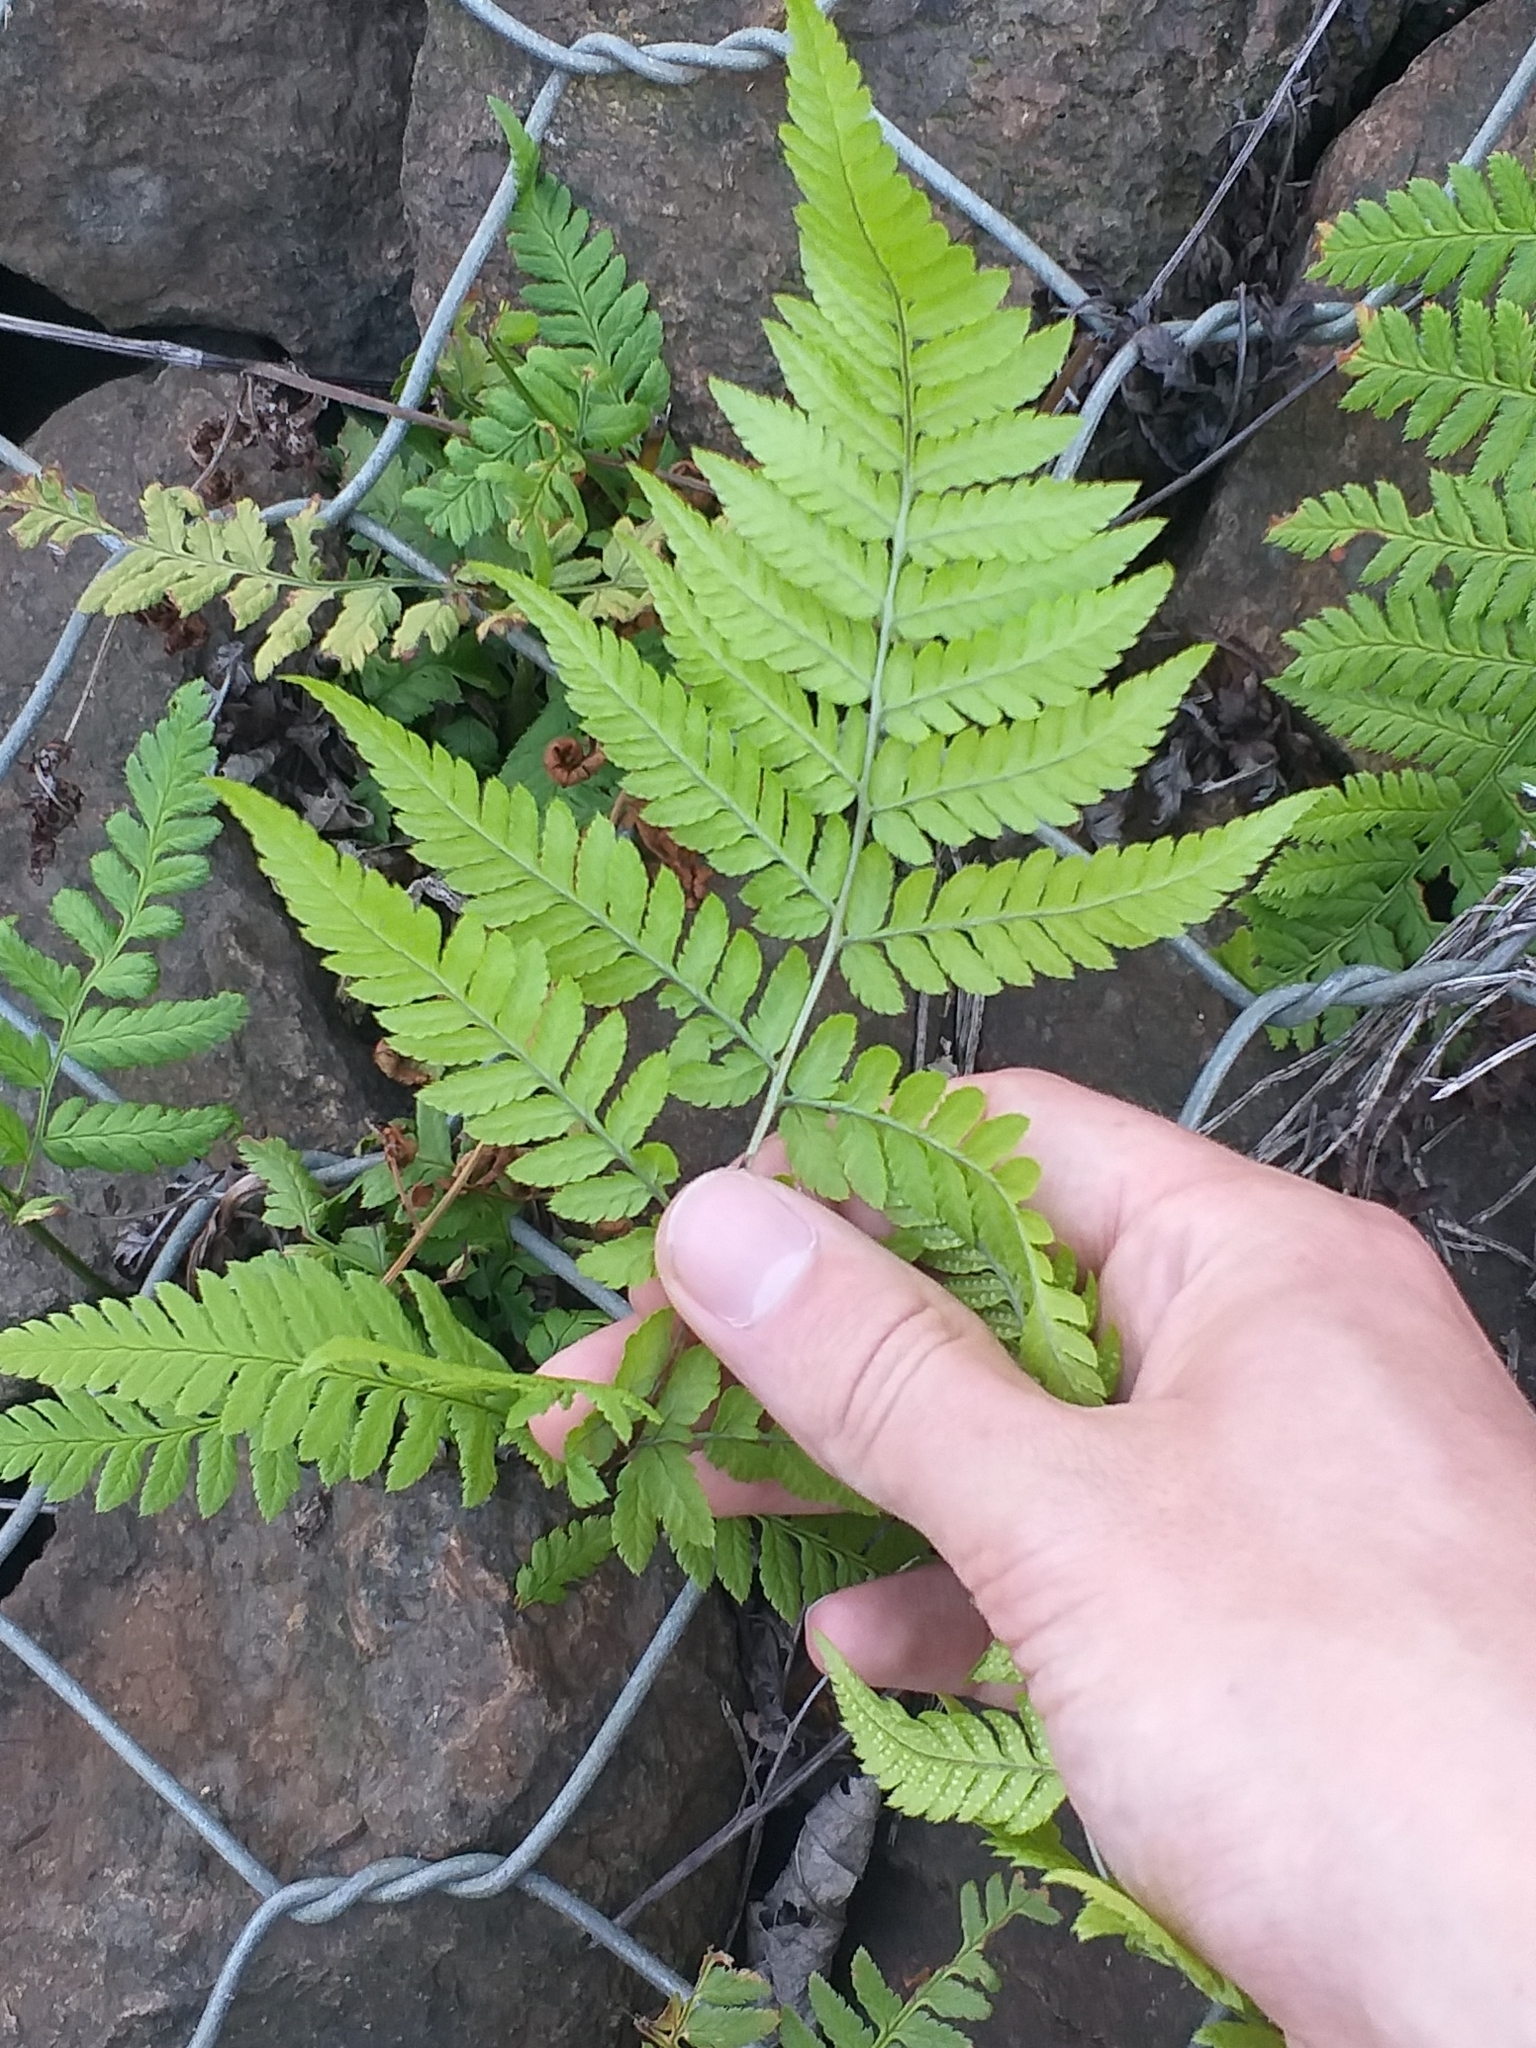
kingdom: Plantae
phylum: Tracheophyta
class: Polypodiopsida
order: Polypodiales
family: Dryopteridaceae
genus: Dryopteris
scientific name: Dryopteris carthusiana
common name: Narrow buckler-fern
